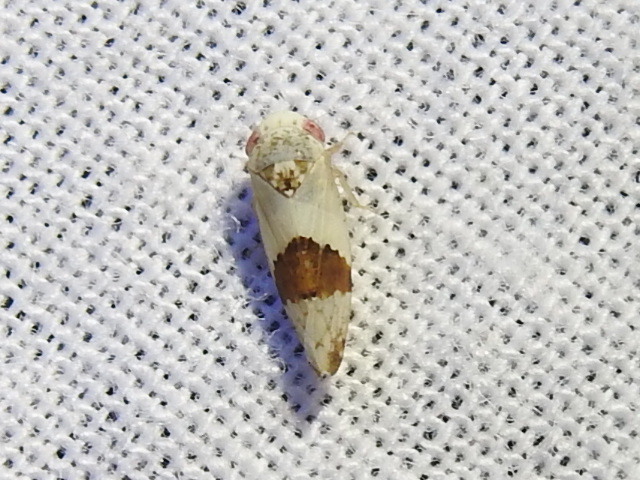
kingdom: Animalia
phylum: Arthropoda
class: Insecta
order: Hemiptera
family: Cicadellidae
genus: Norvellina
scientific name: Norvellina seminuda
